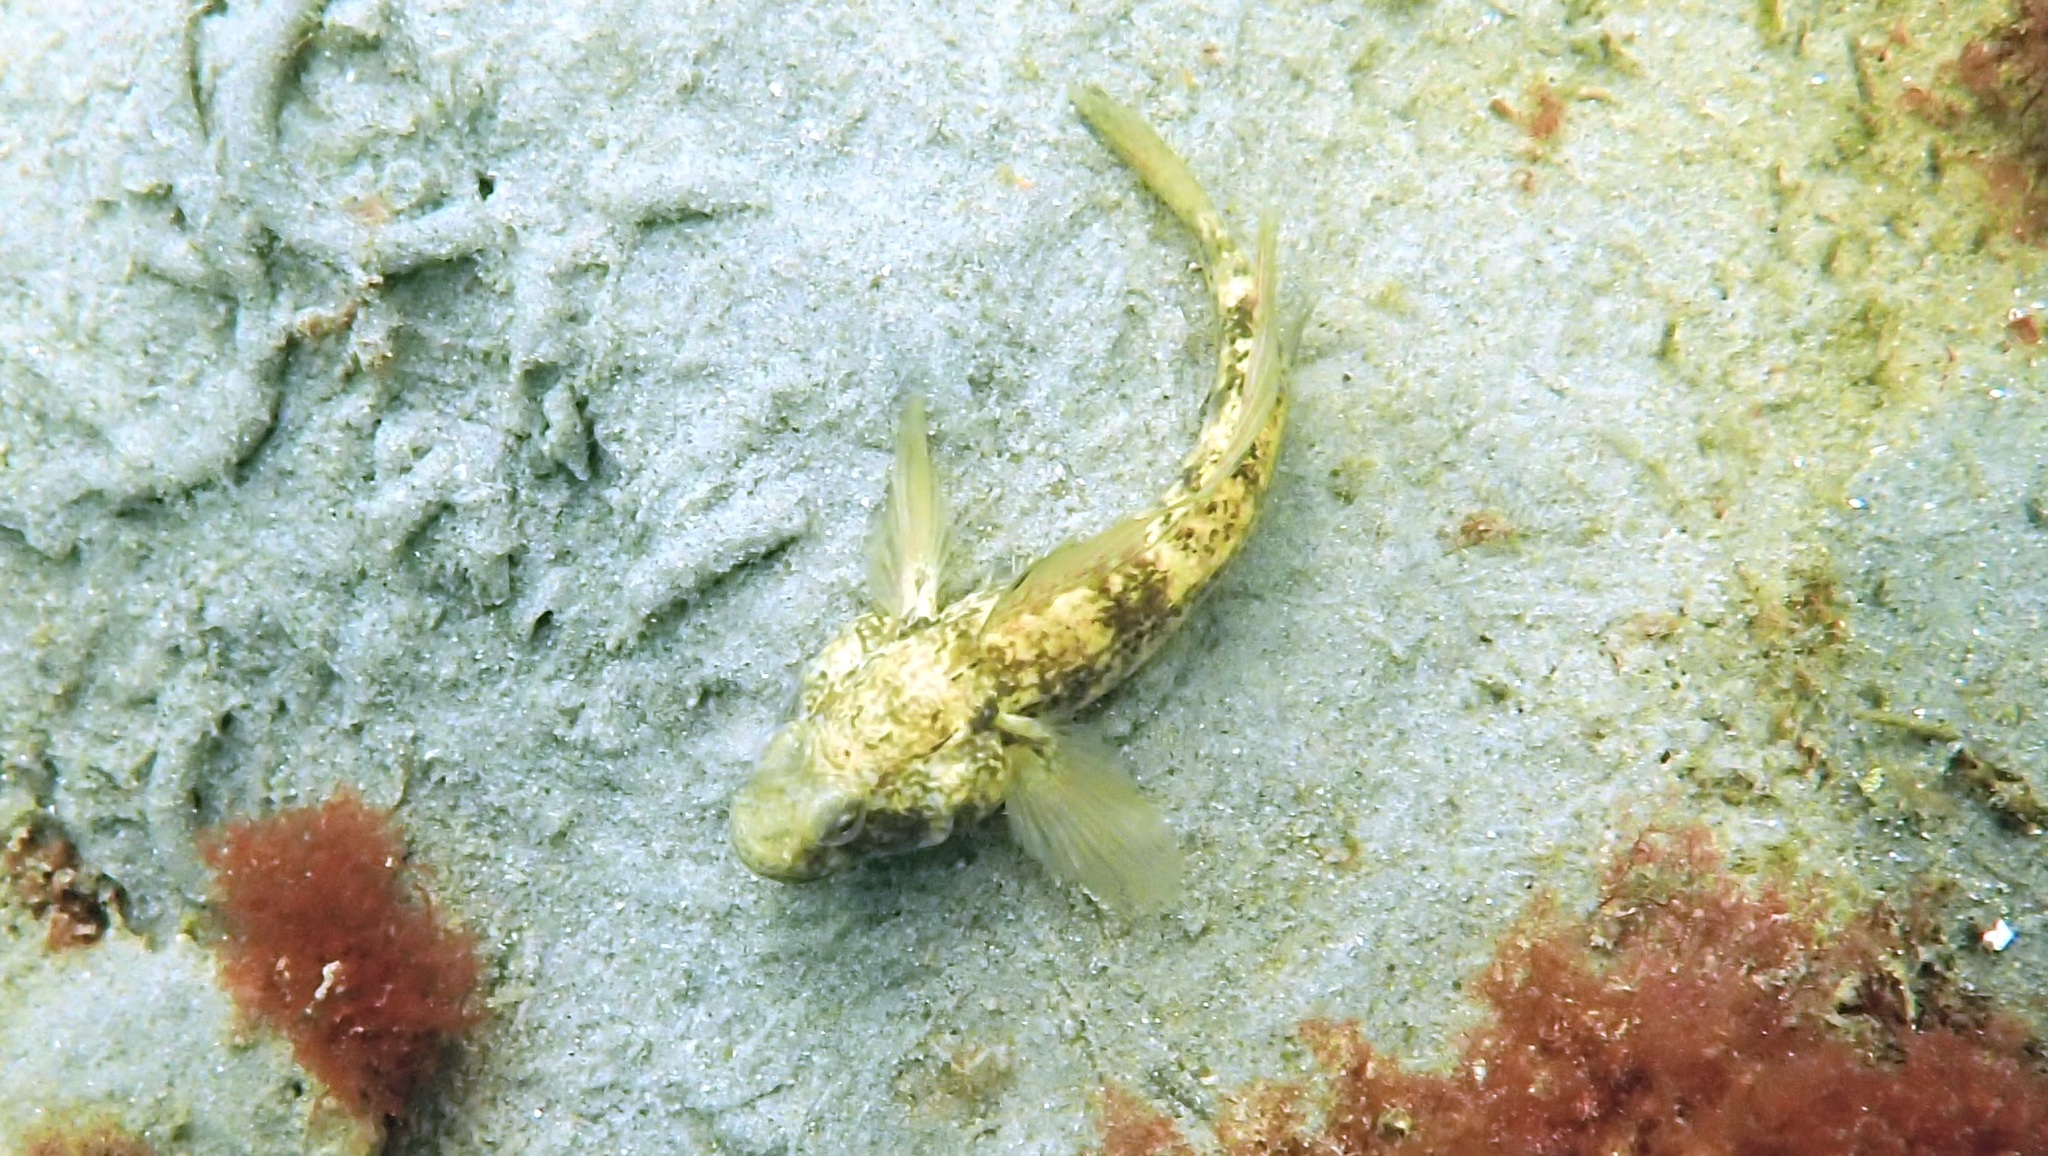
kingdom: Animalia
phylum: Chordata
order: Perciformes
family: Gobiidae
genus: Gobius
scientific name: Gobius niger
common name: Black goby
